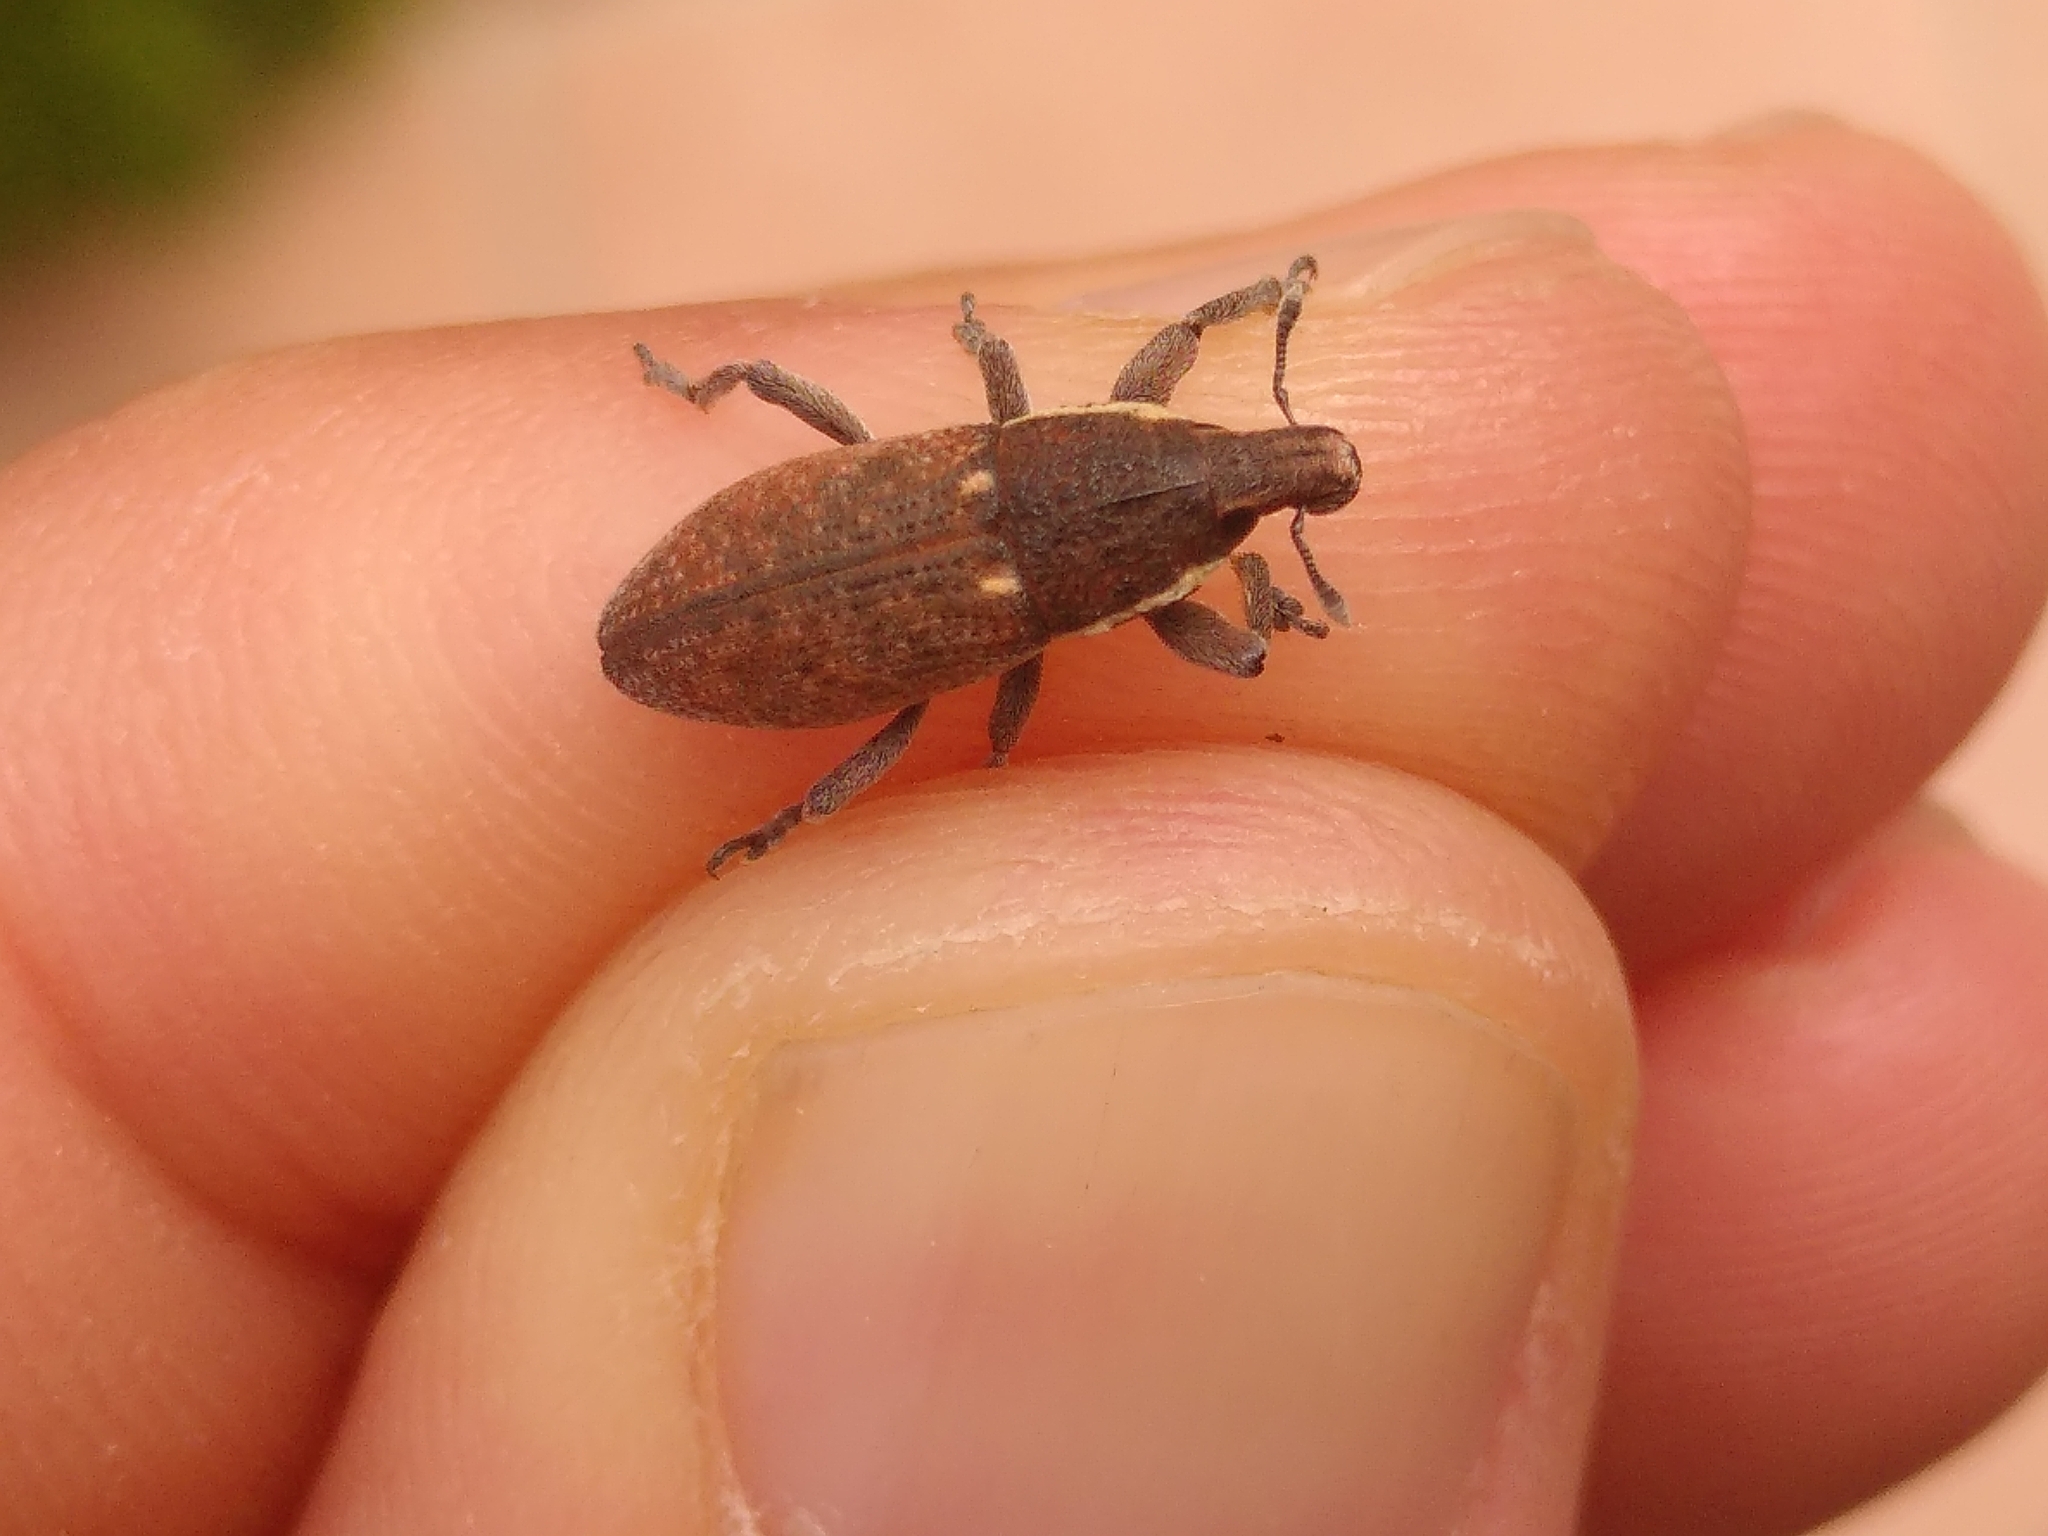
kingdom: Animalia
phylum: Arthropoda
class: Insecta
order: Coleoptera
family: Curculionidae
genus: Pseudocleonus
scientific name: Pseudocleonus grammicus
